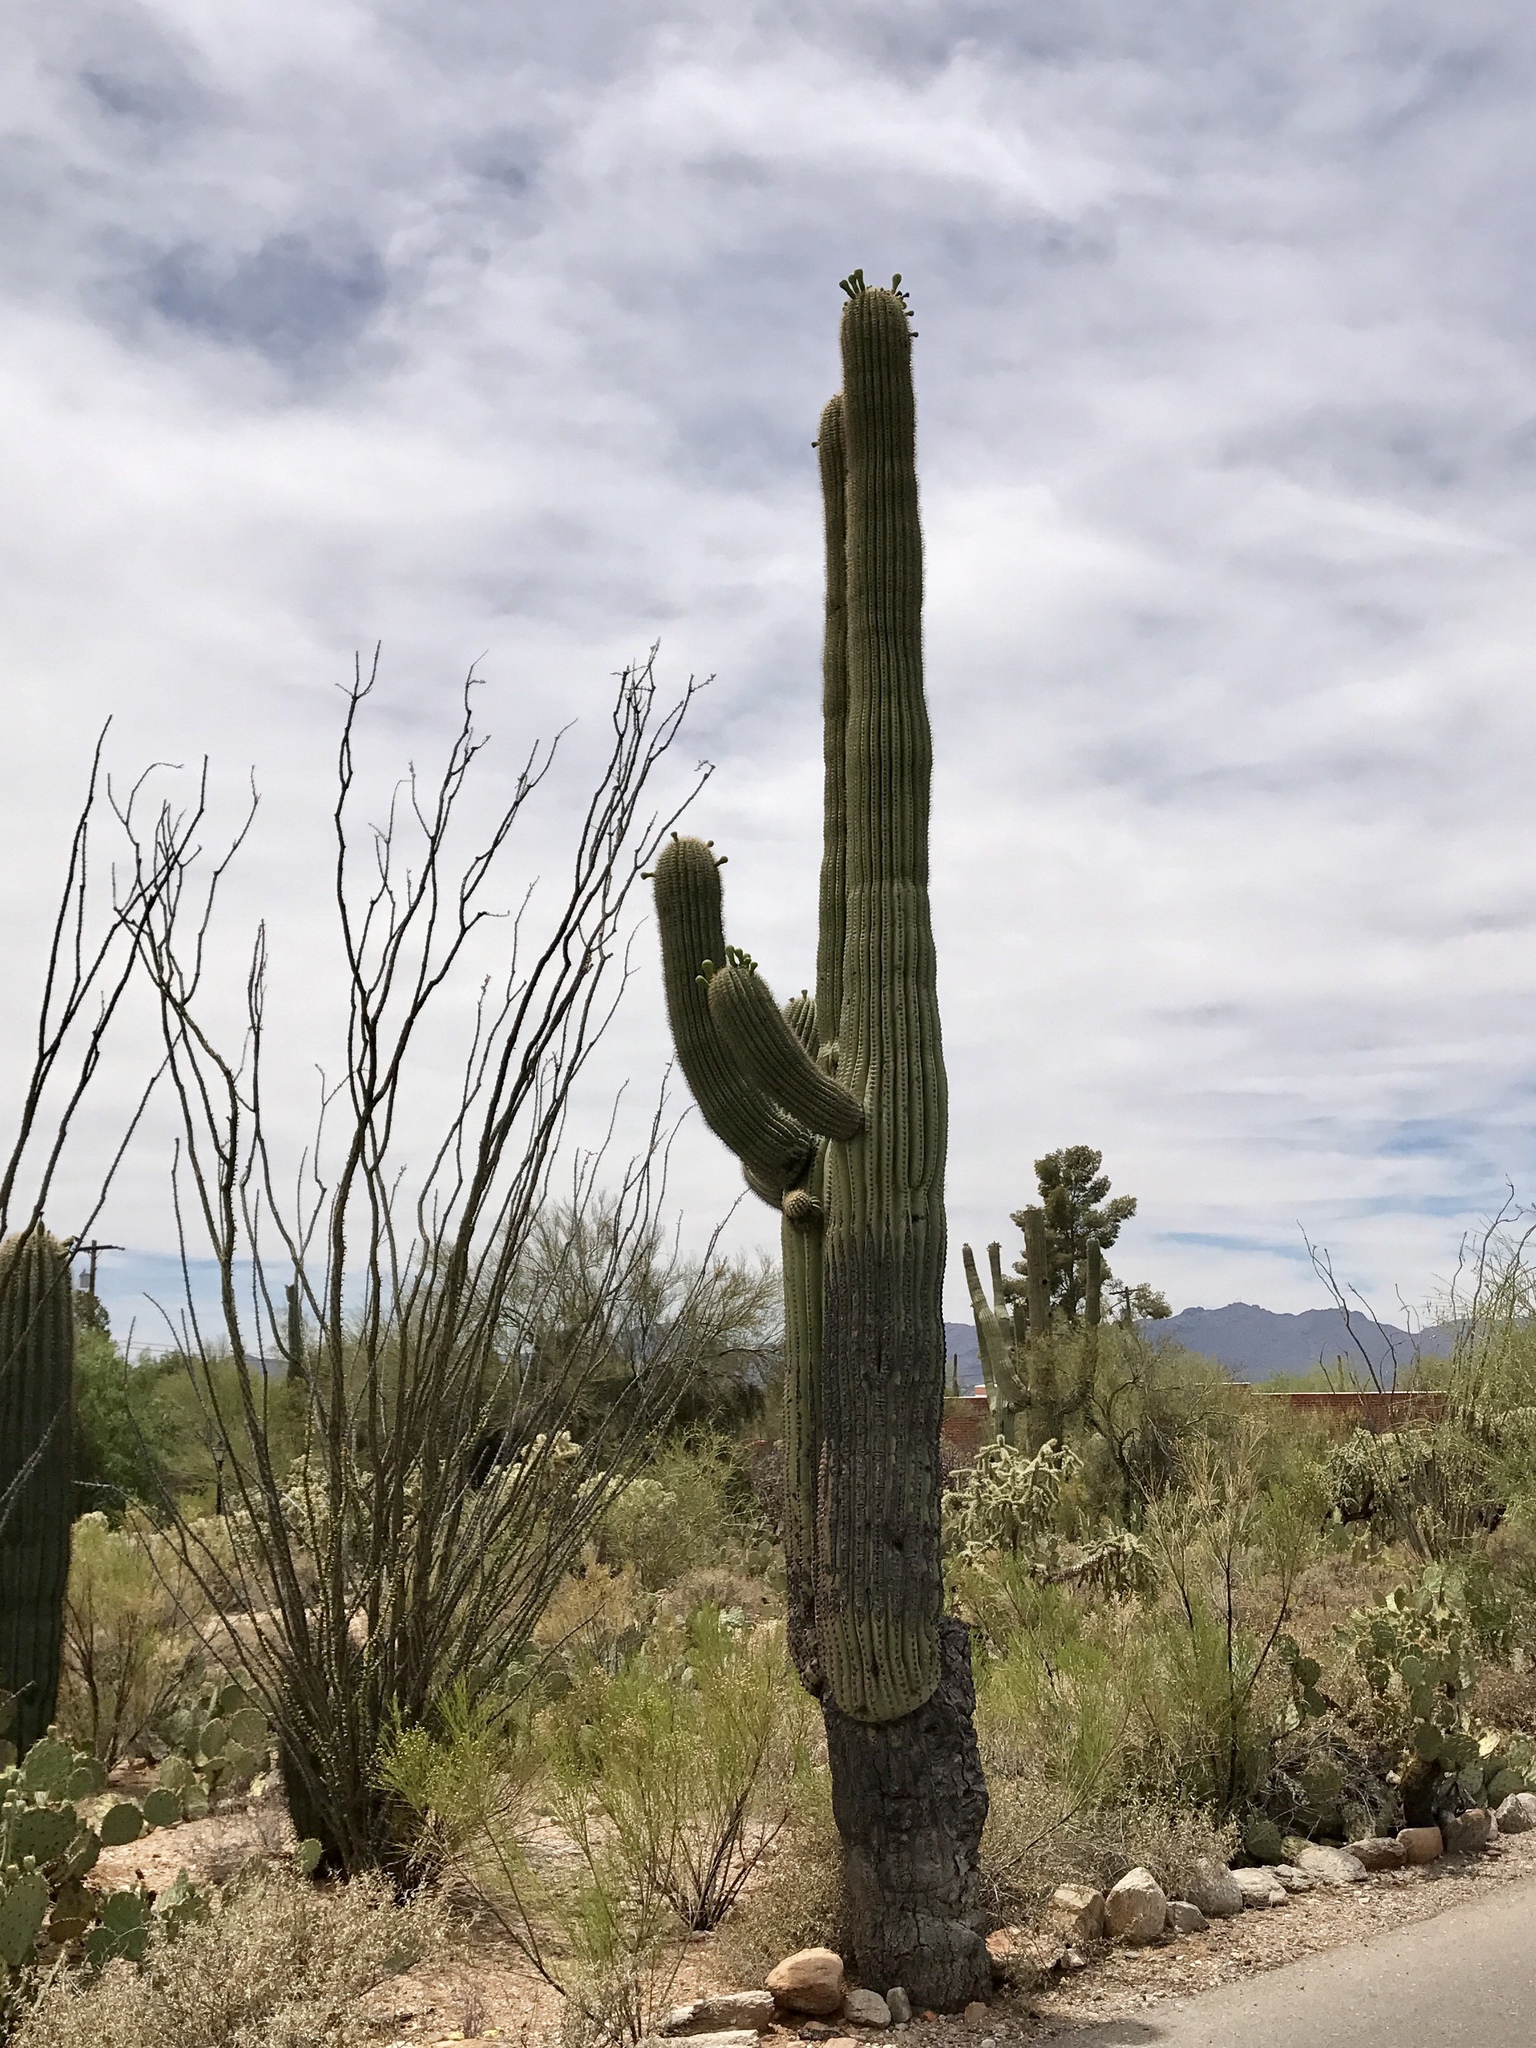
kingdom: Plantae
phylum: Tracheophyta
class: Magnoliopsida
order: Caryophyllales
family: Cactaceae
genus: Carnegiea
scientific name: Carnegiea gigantea
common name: Saguaro
